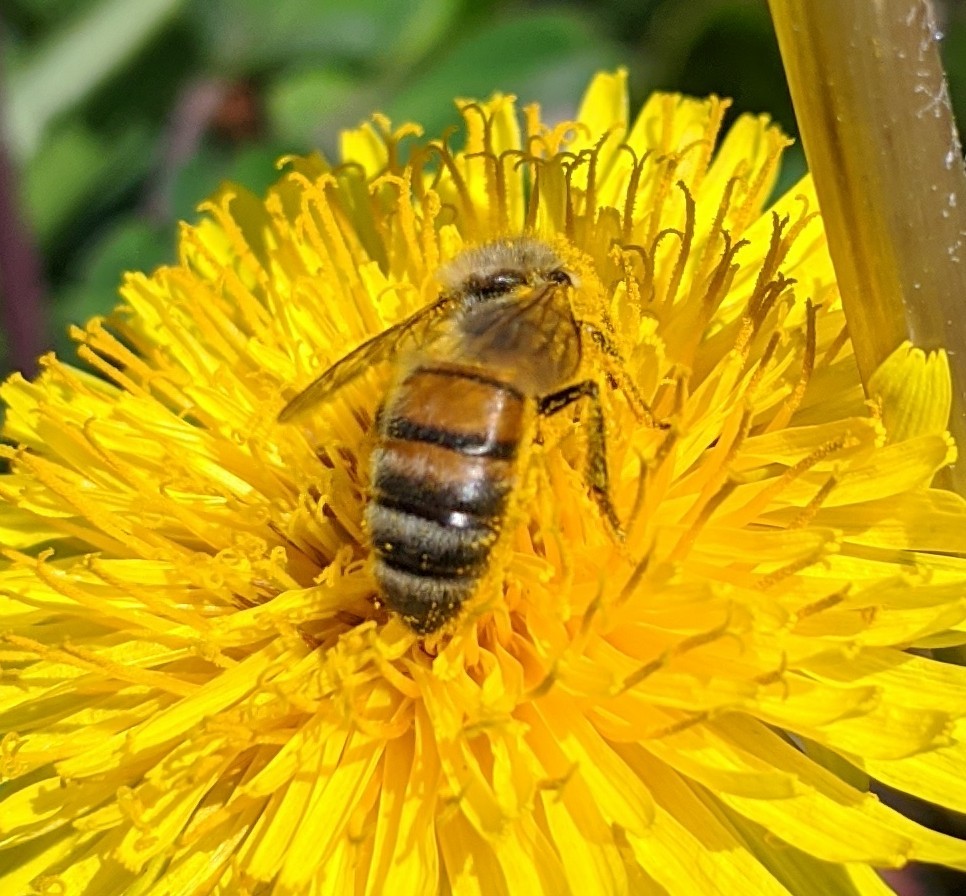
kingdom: Animalia
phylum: Arthropoda
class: Insecta
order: Hymenoptera
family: Apidae
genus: Apis
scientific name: Apis mellifera
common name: Honey bee
